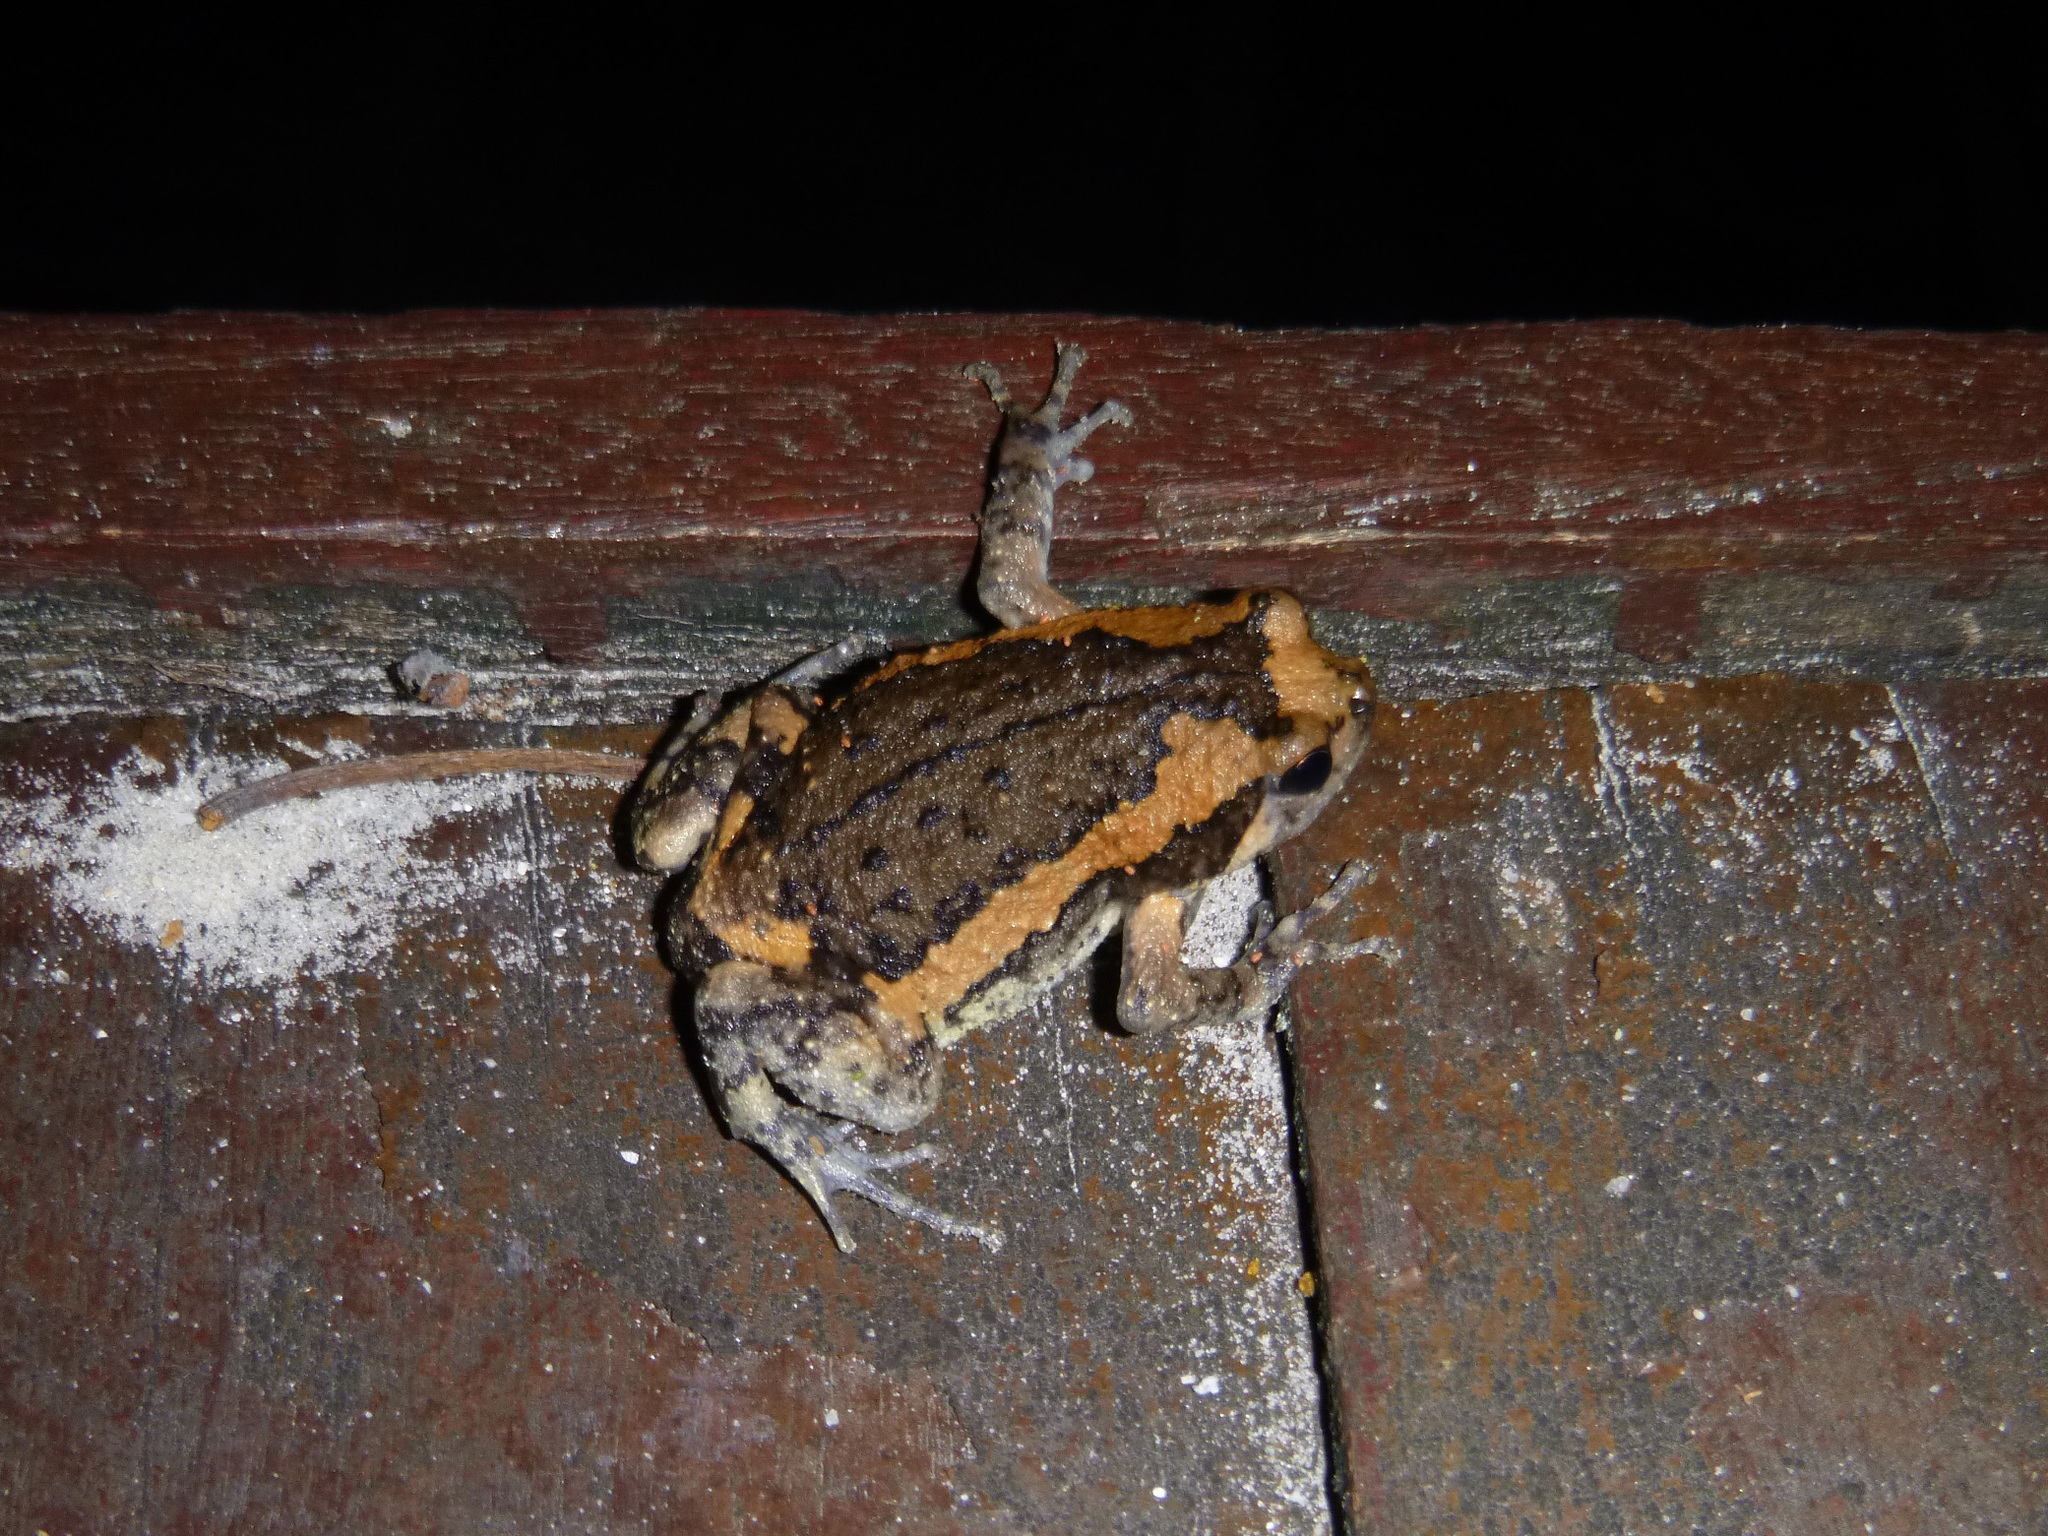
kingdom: Animalia
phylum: Chordata
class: Amphibia
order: Anura
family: Microhylidae
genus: Kaloula
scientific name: Kaloula pulchra
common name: Common,banded bullfrog
